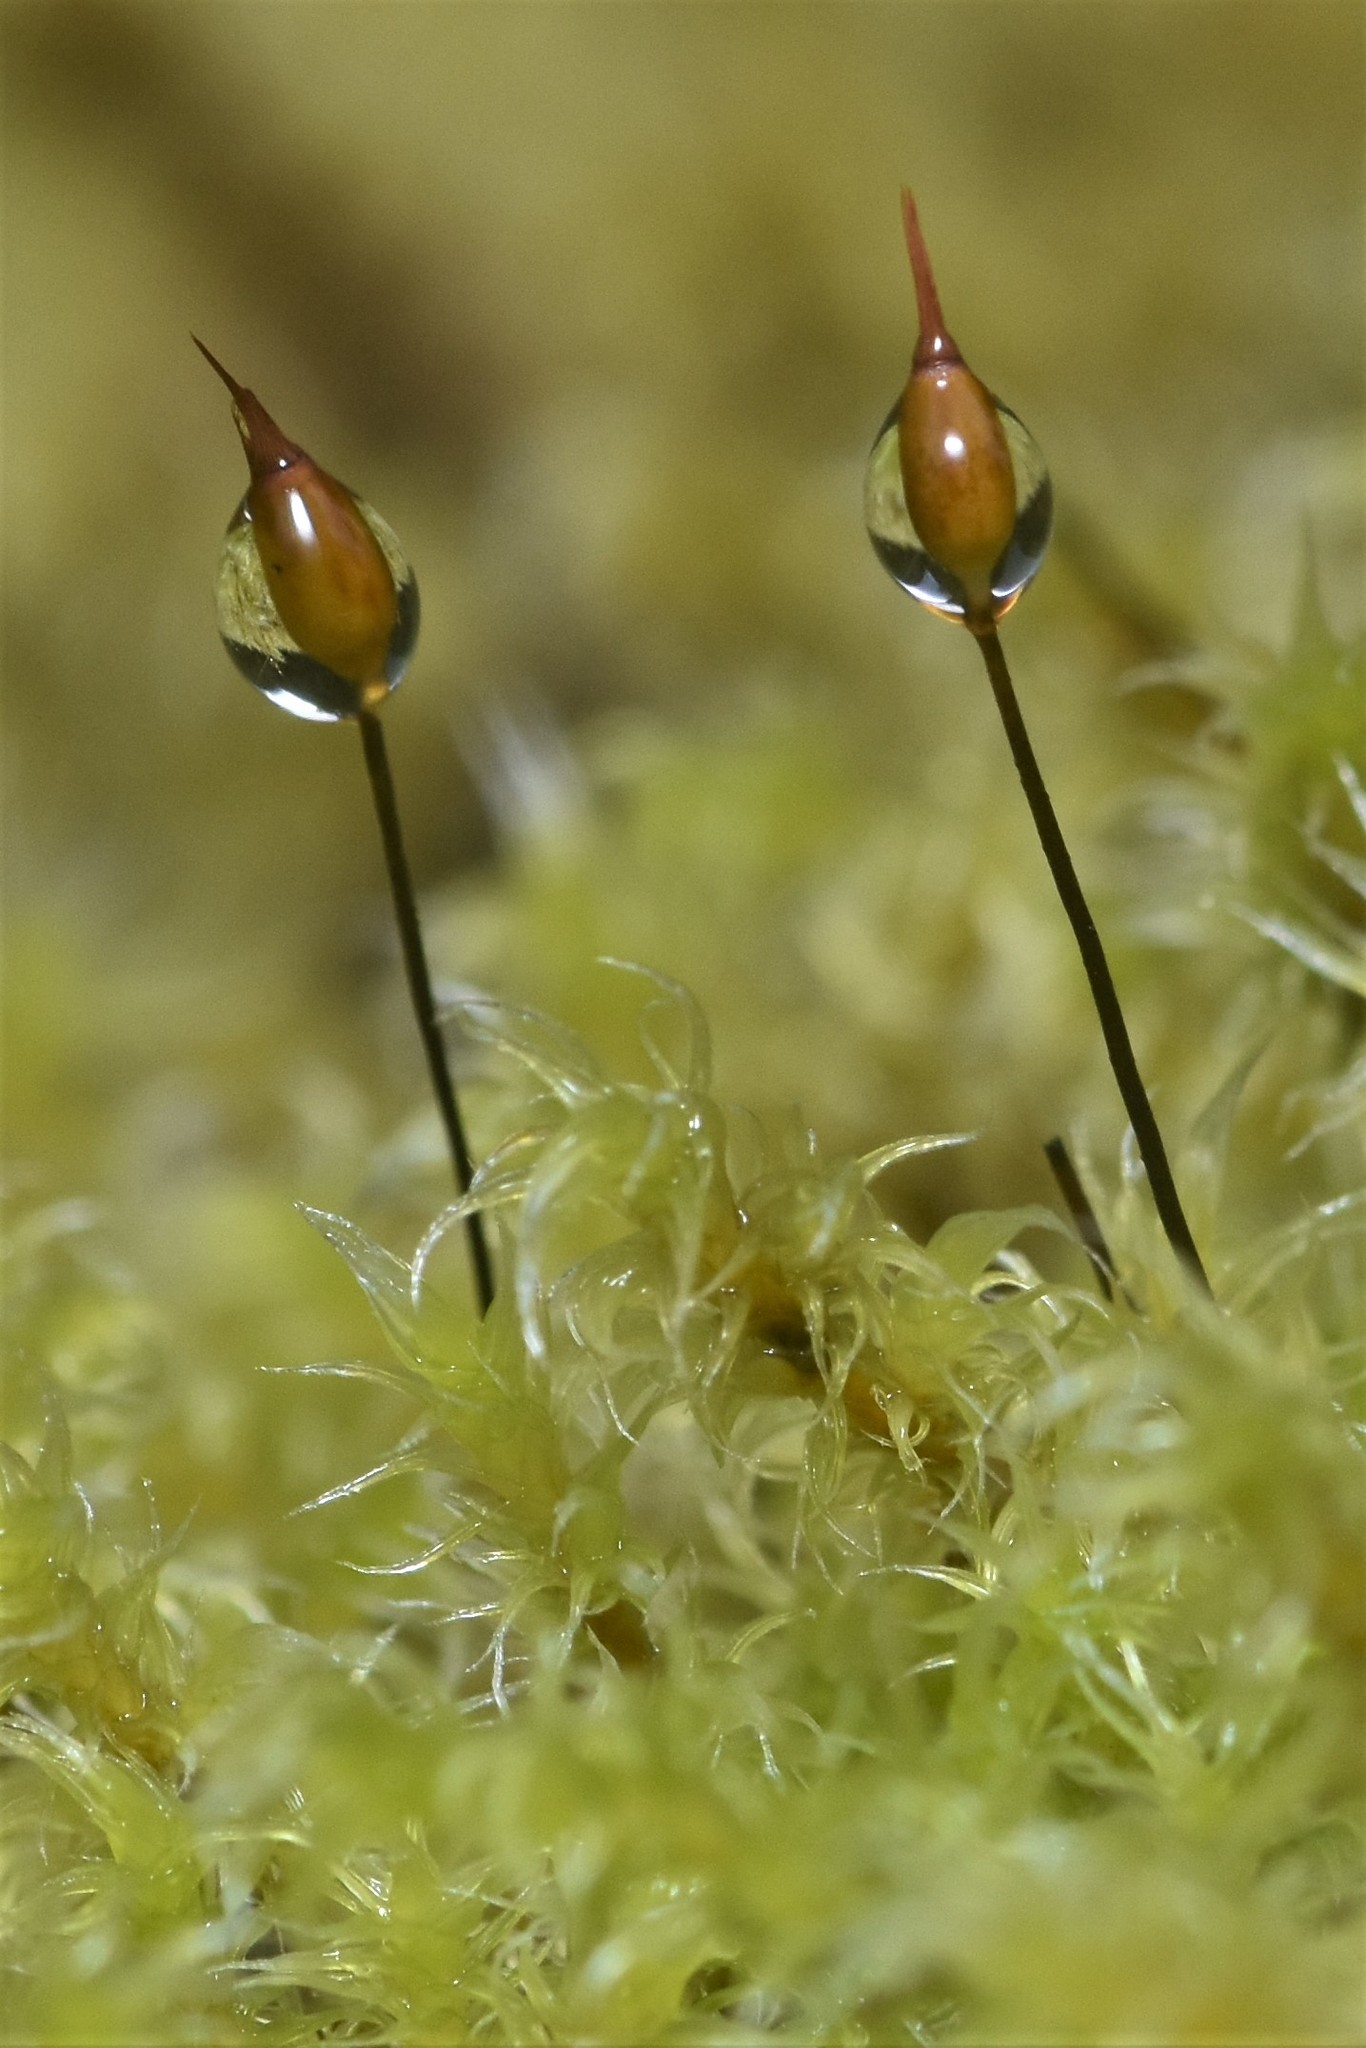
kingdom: Plantae
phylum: Bryophyta
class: Bryopsida
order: Grimmiales
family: Grimmiaceae
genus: Niphotrichum
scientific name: Niphotrichum elongatum
